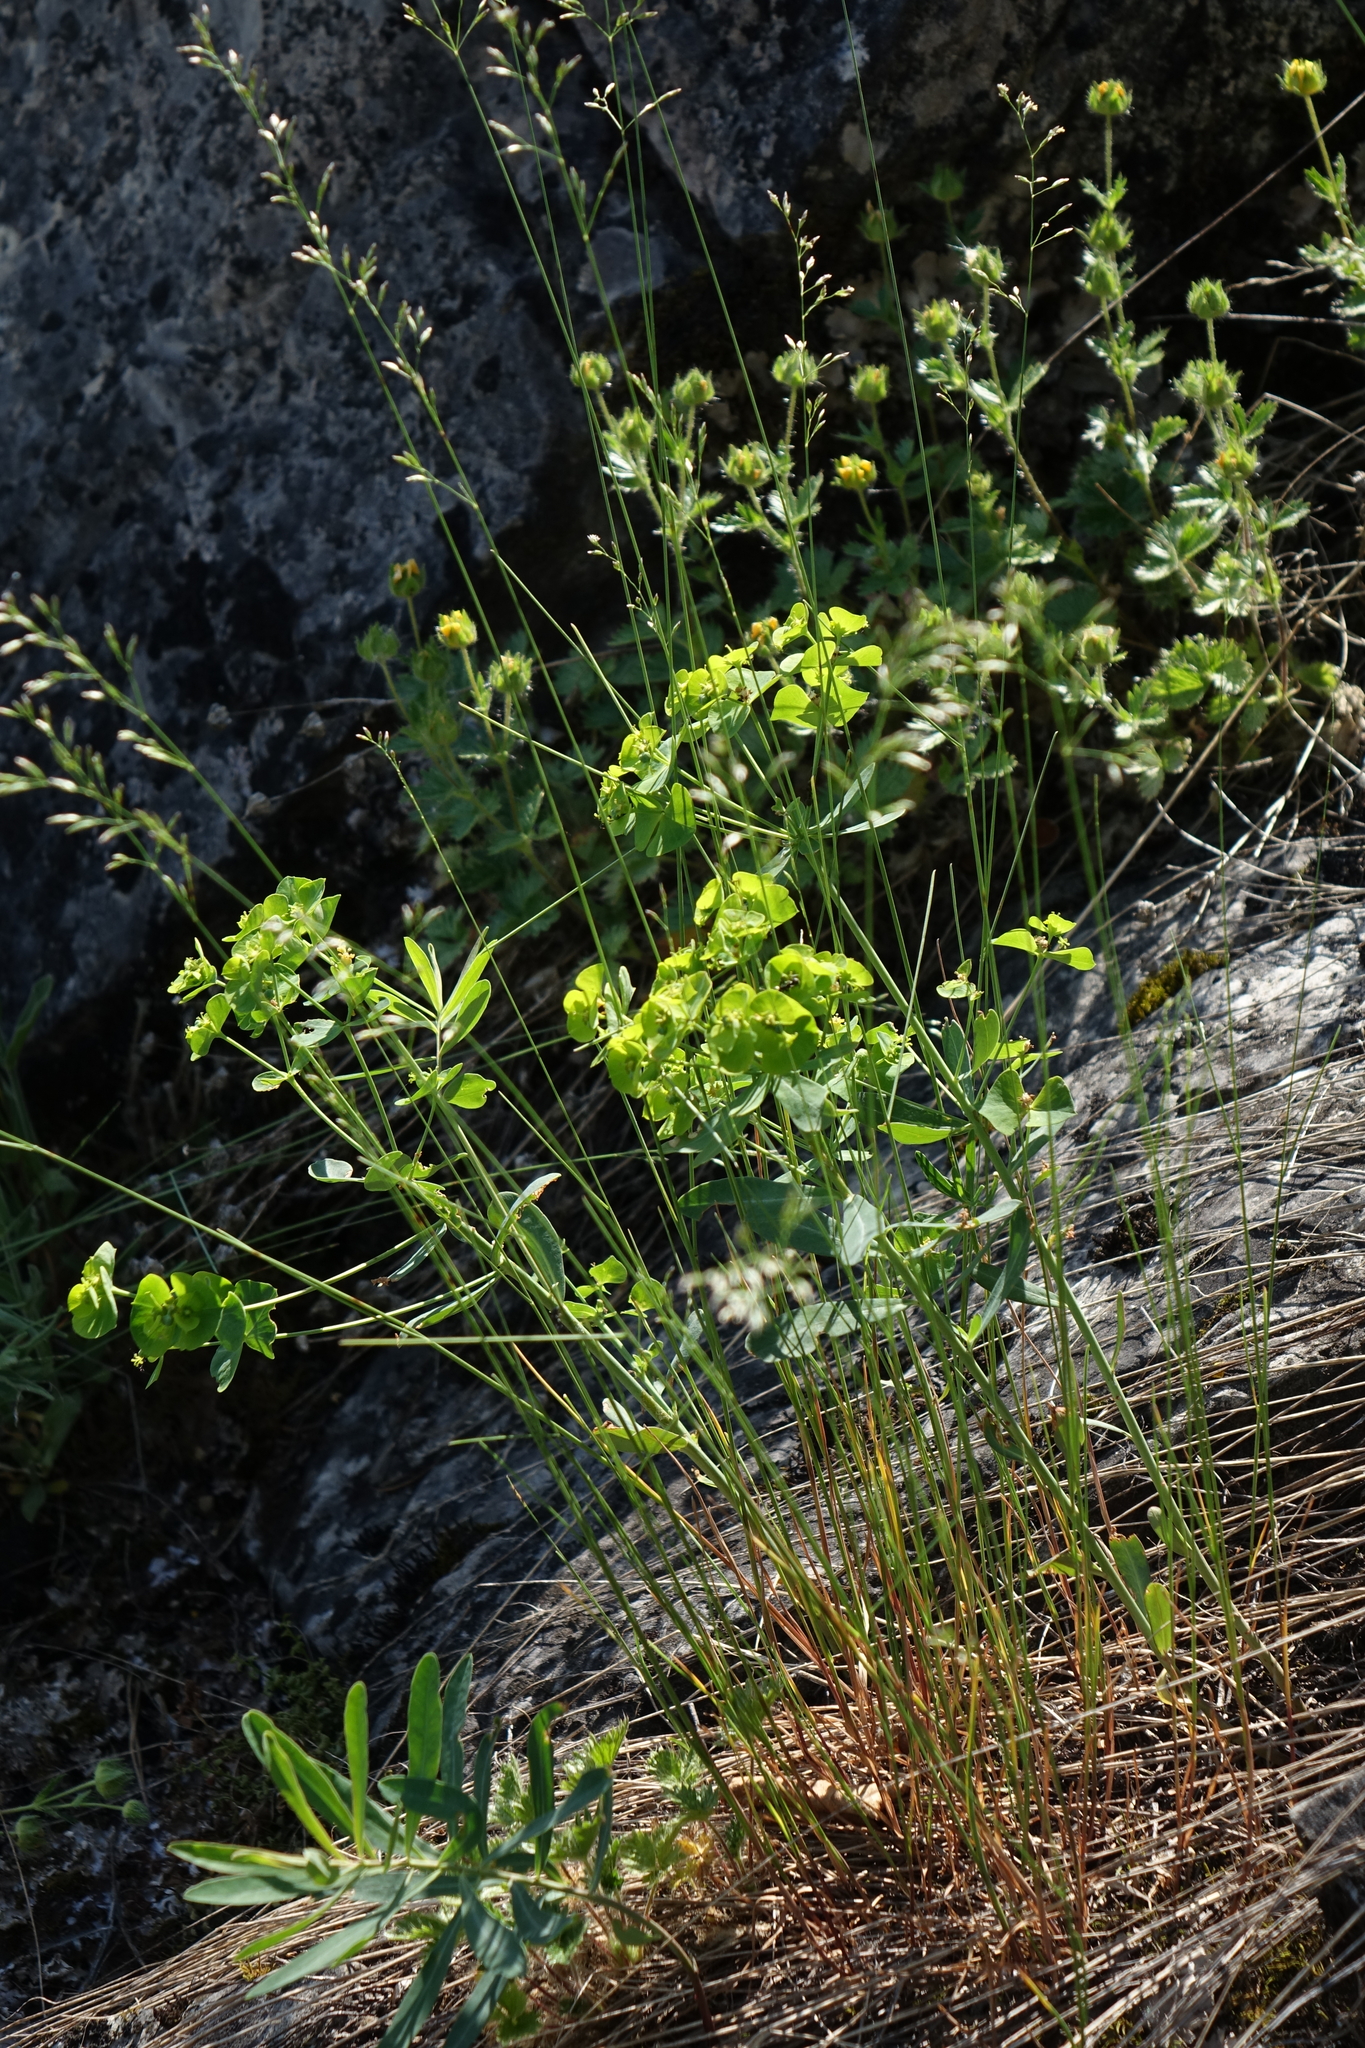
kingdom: Plantae
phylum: Tracheophyta
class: Magnoliopsida
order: Malpighiales
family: Euphorbiaceae
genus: Euphorbia
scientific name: Euphorbia borealis
